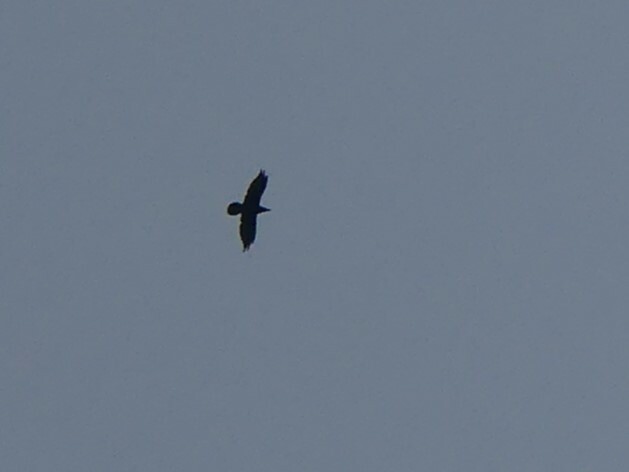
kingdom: Animalia
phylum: Chordata
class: Aves
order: Passeriformes
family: Corvidae
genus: Corvus
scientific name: Corvus corax
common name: Common raven
